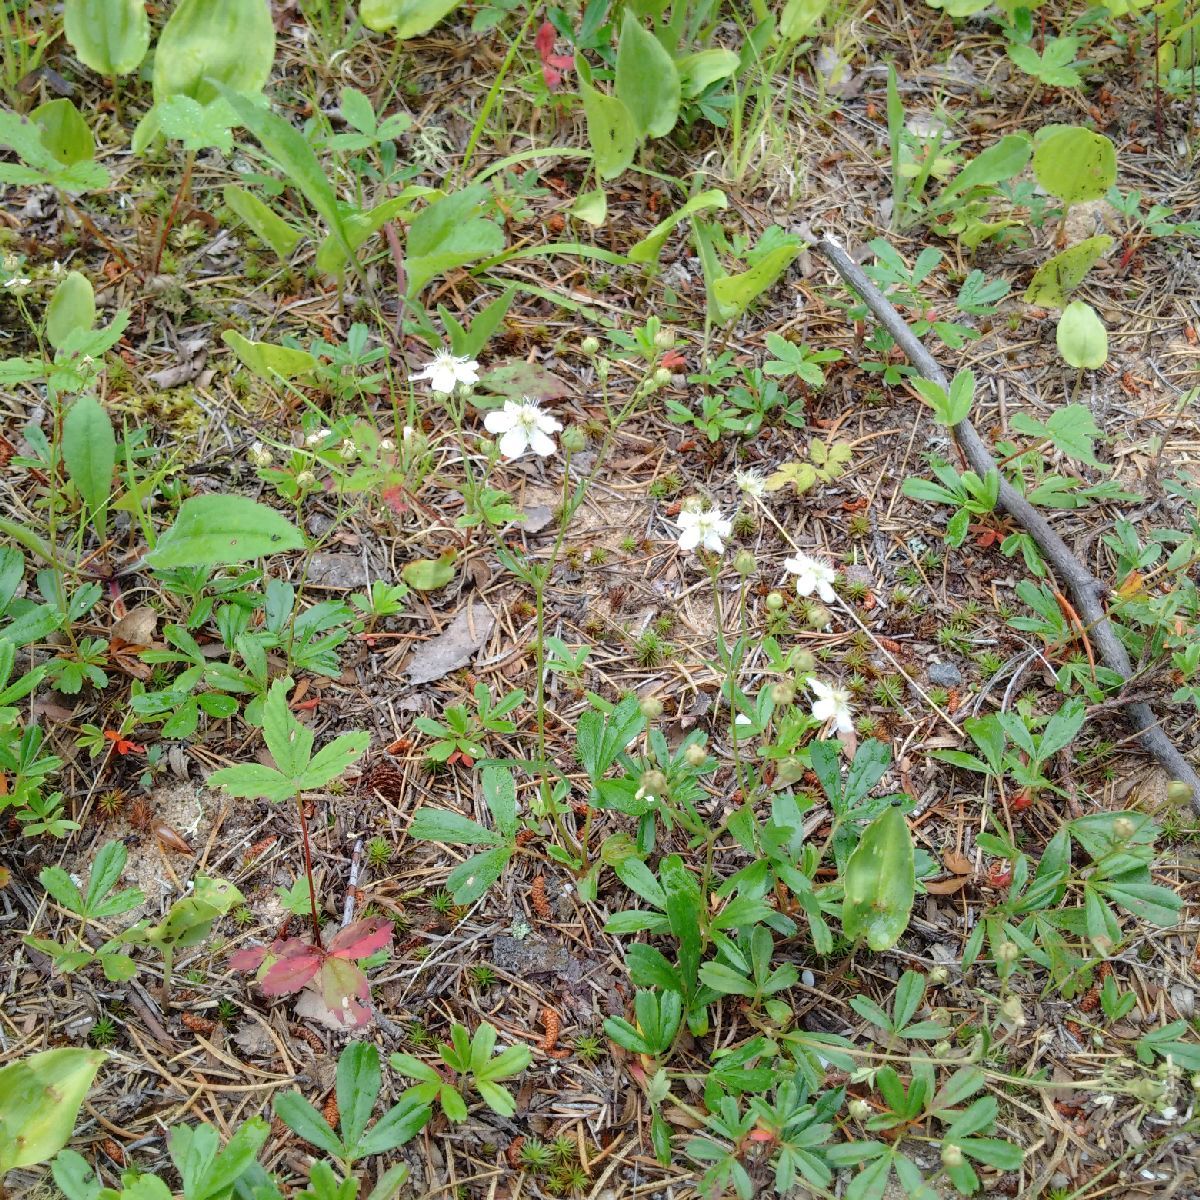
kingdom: Plantae
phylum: Tracheophyta
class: Magnoliopsida
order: Rosales
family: Rosaceae
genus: Sibbaldia
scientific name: Sibbaldia tridentata
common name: Three-toothed cinquefoil
